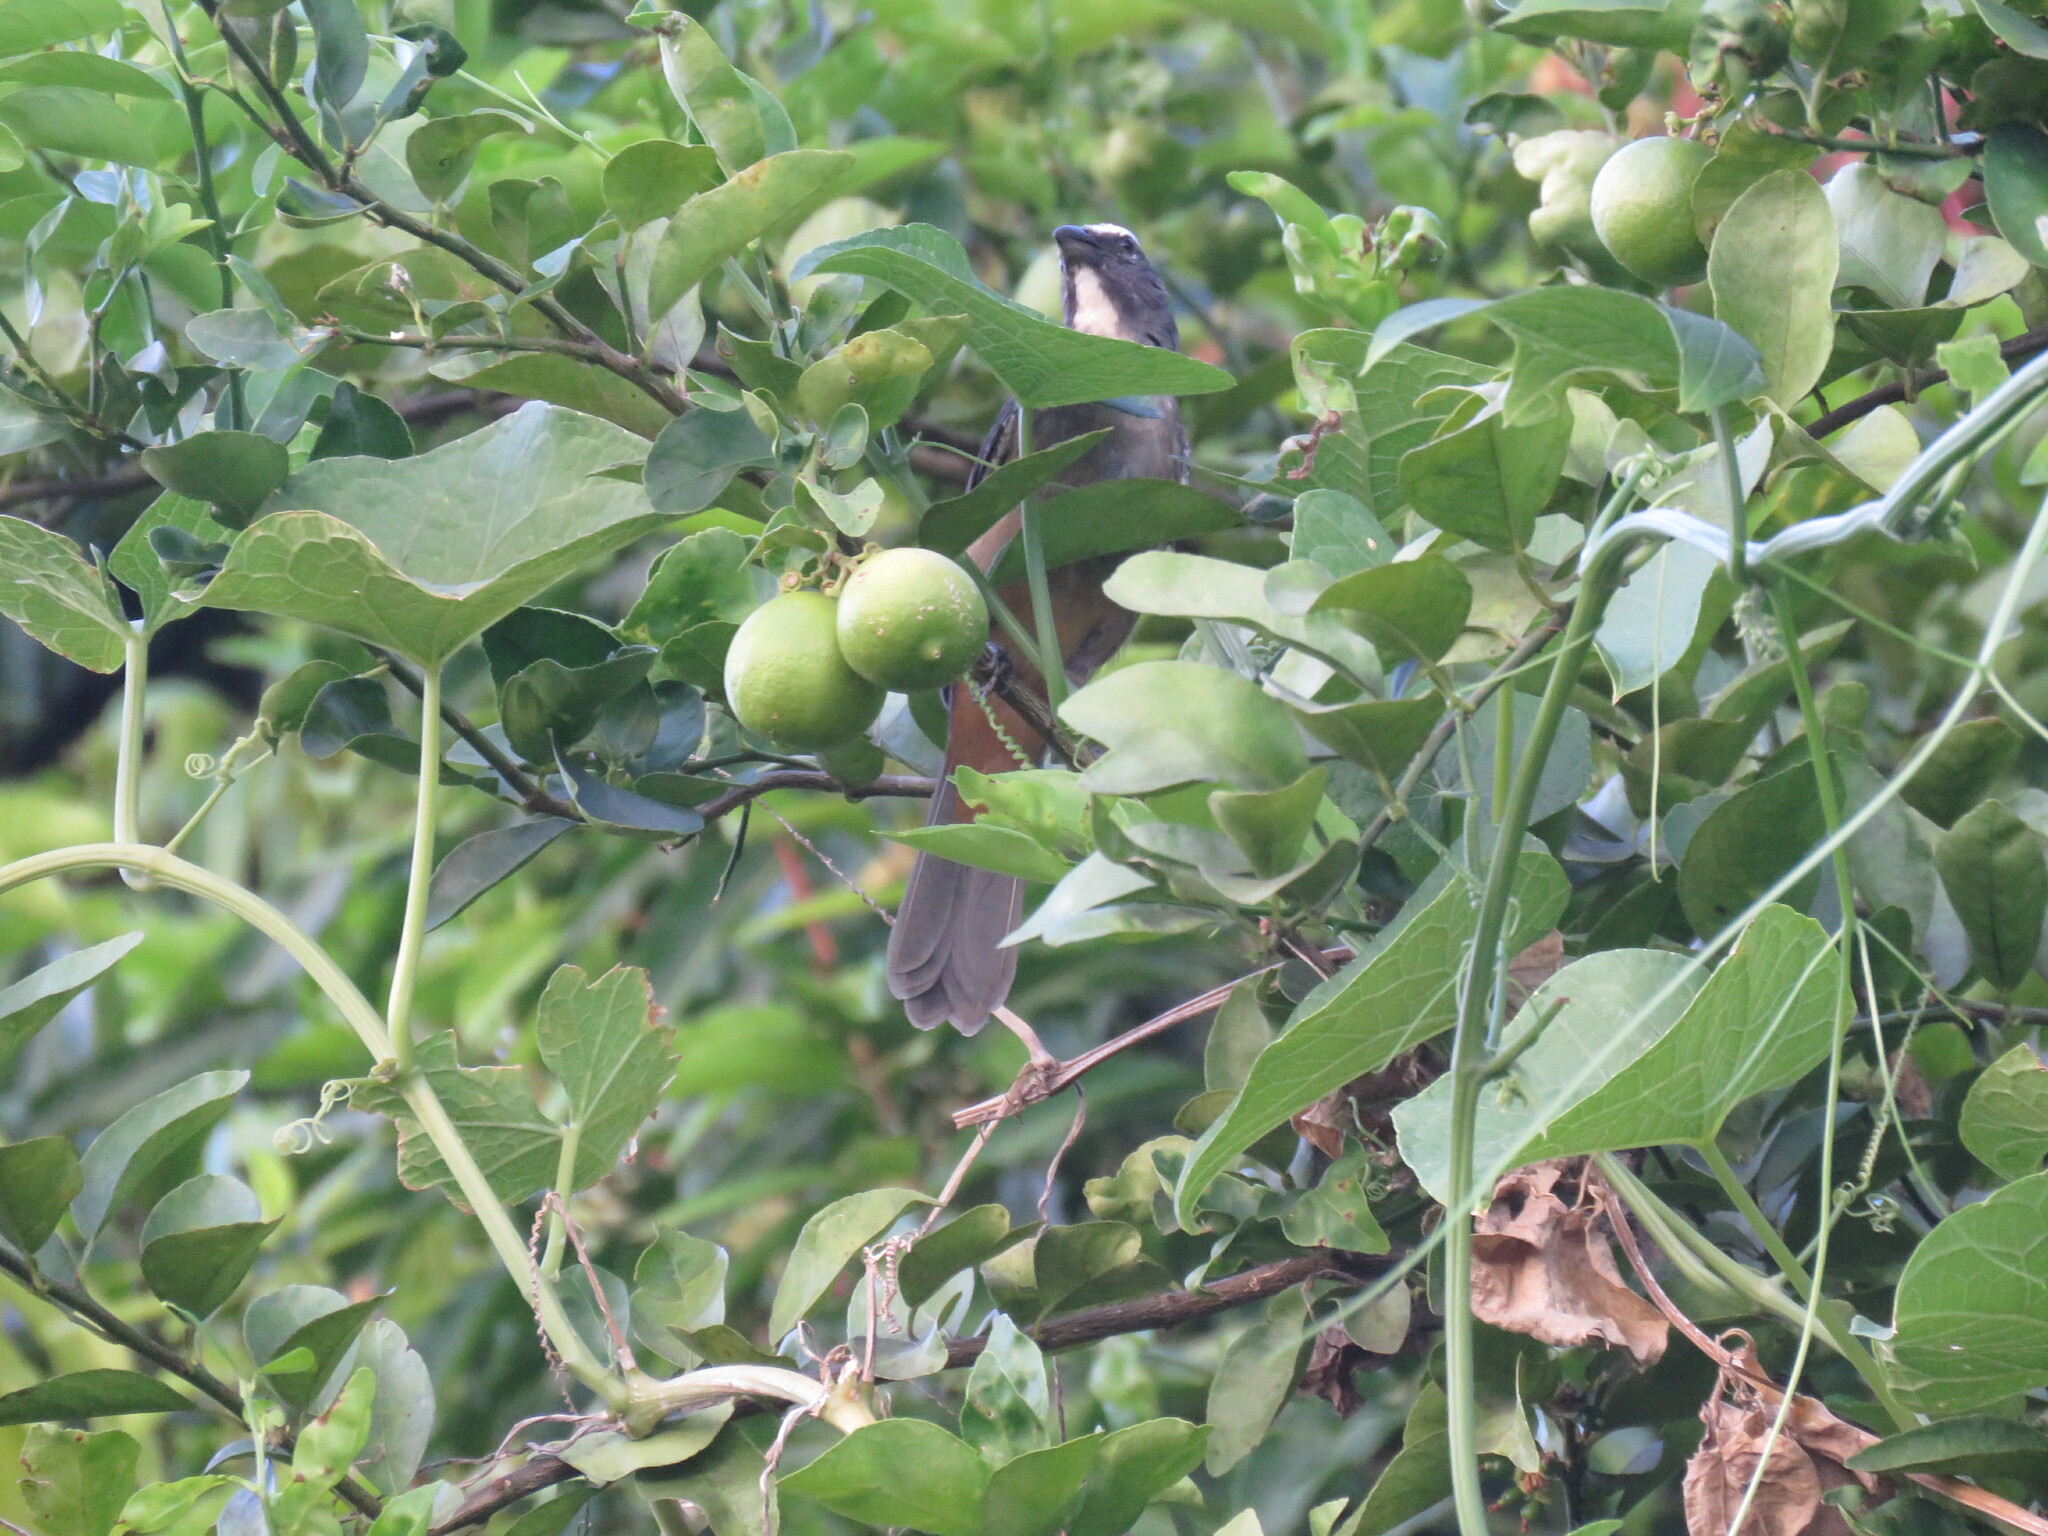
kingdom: Animalia
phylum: Chordata
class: Aves
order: Passeriformes
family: Thraupidae
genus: Saltator
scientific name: Saltator grandis
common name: Cinnamon-bellied saltator
